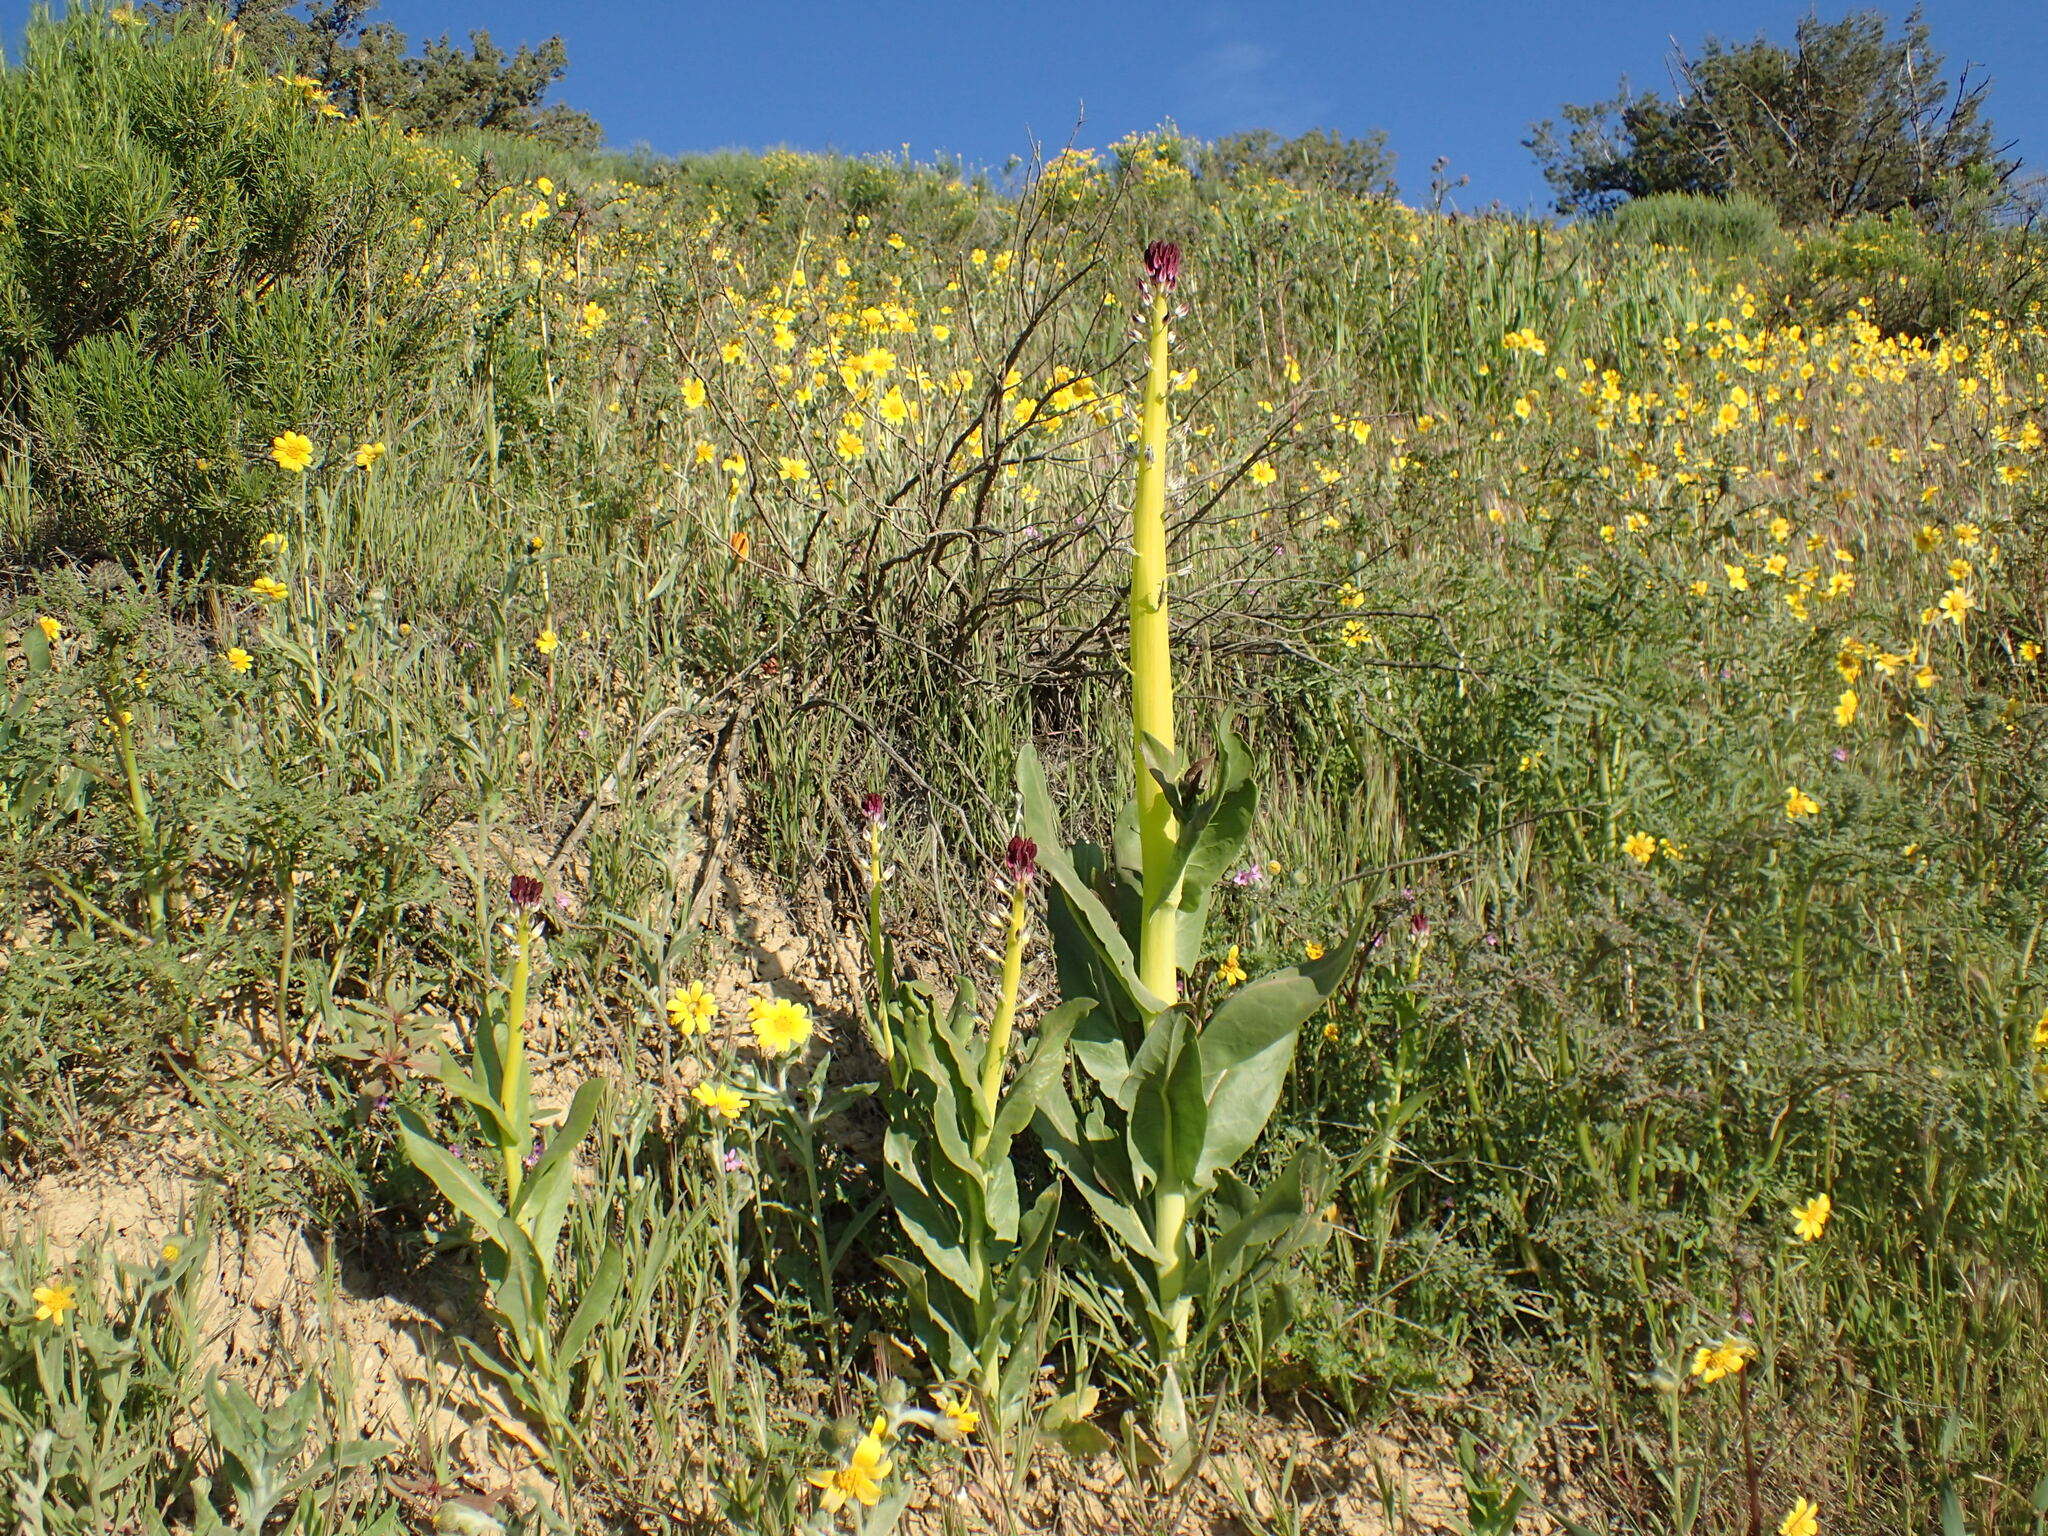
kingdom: Plantae
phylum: Tracheophyta
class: Magnoliopsida
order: Brassicales
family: Brassicaceae
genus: Streptanthus
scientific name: Streptanthus inflatus
